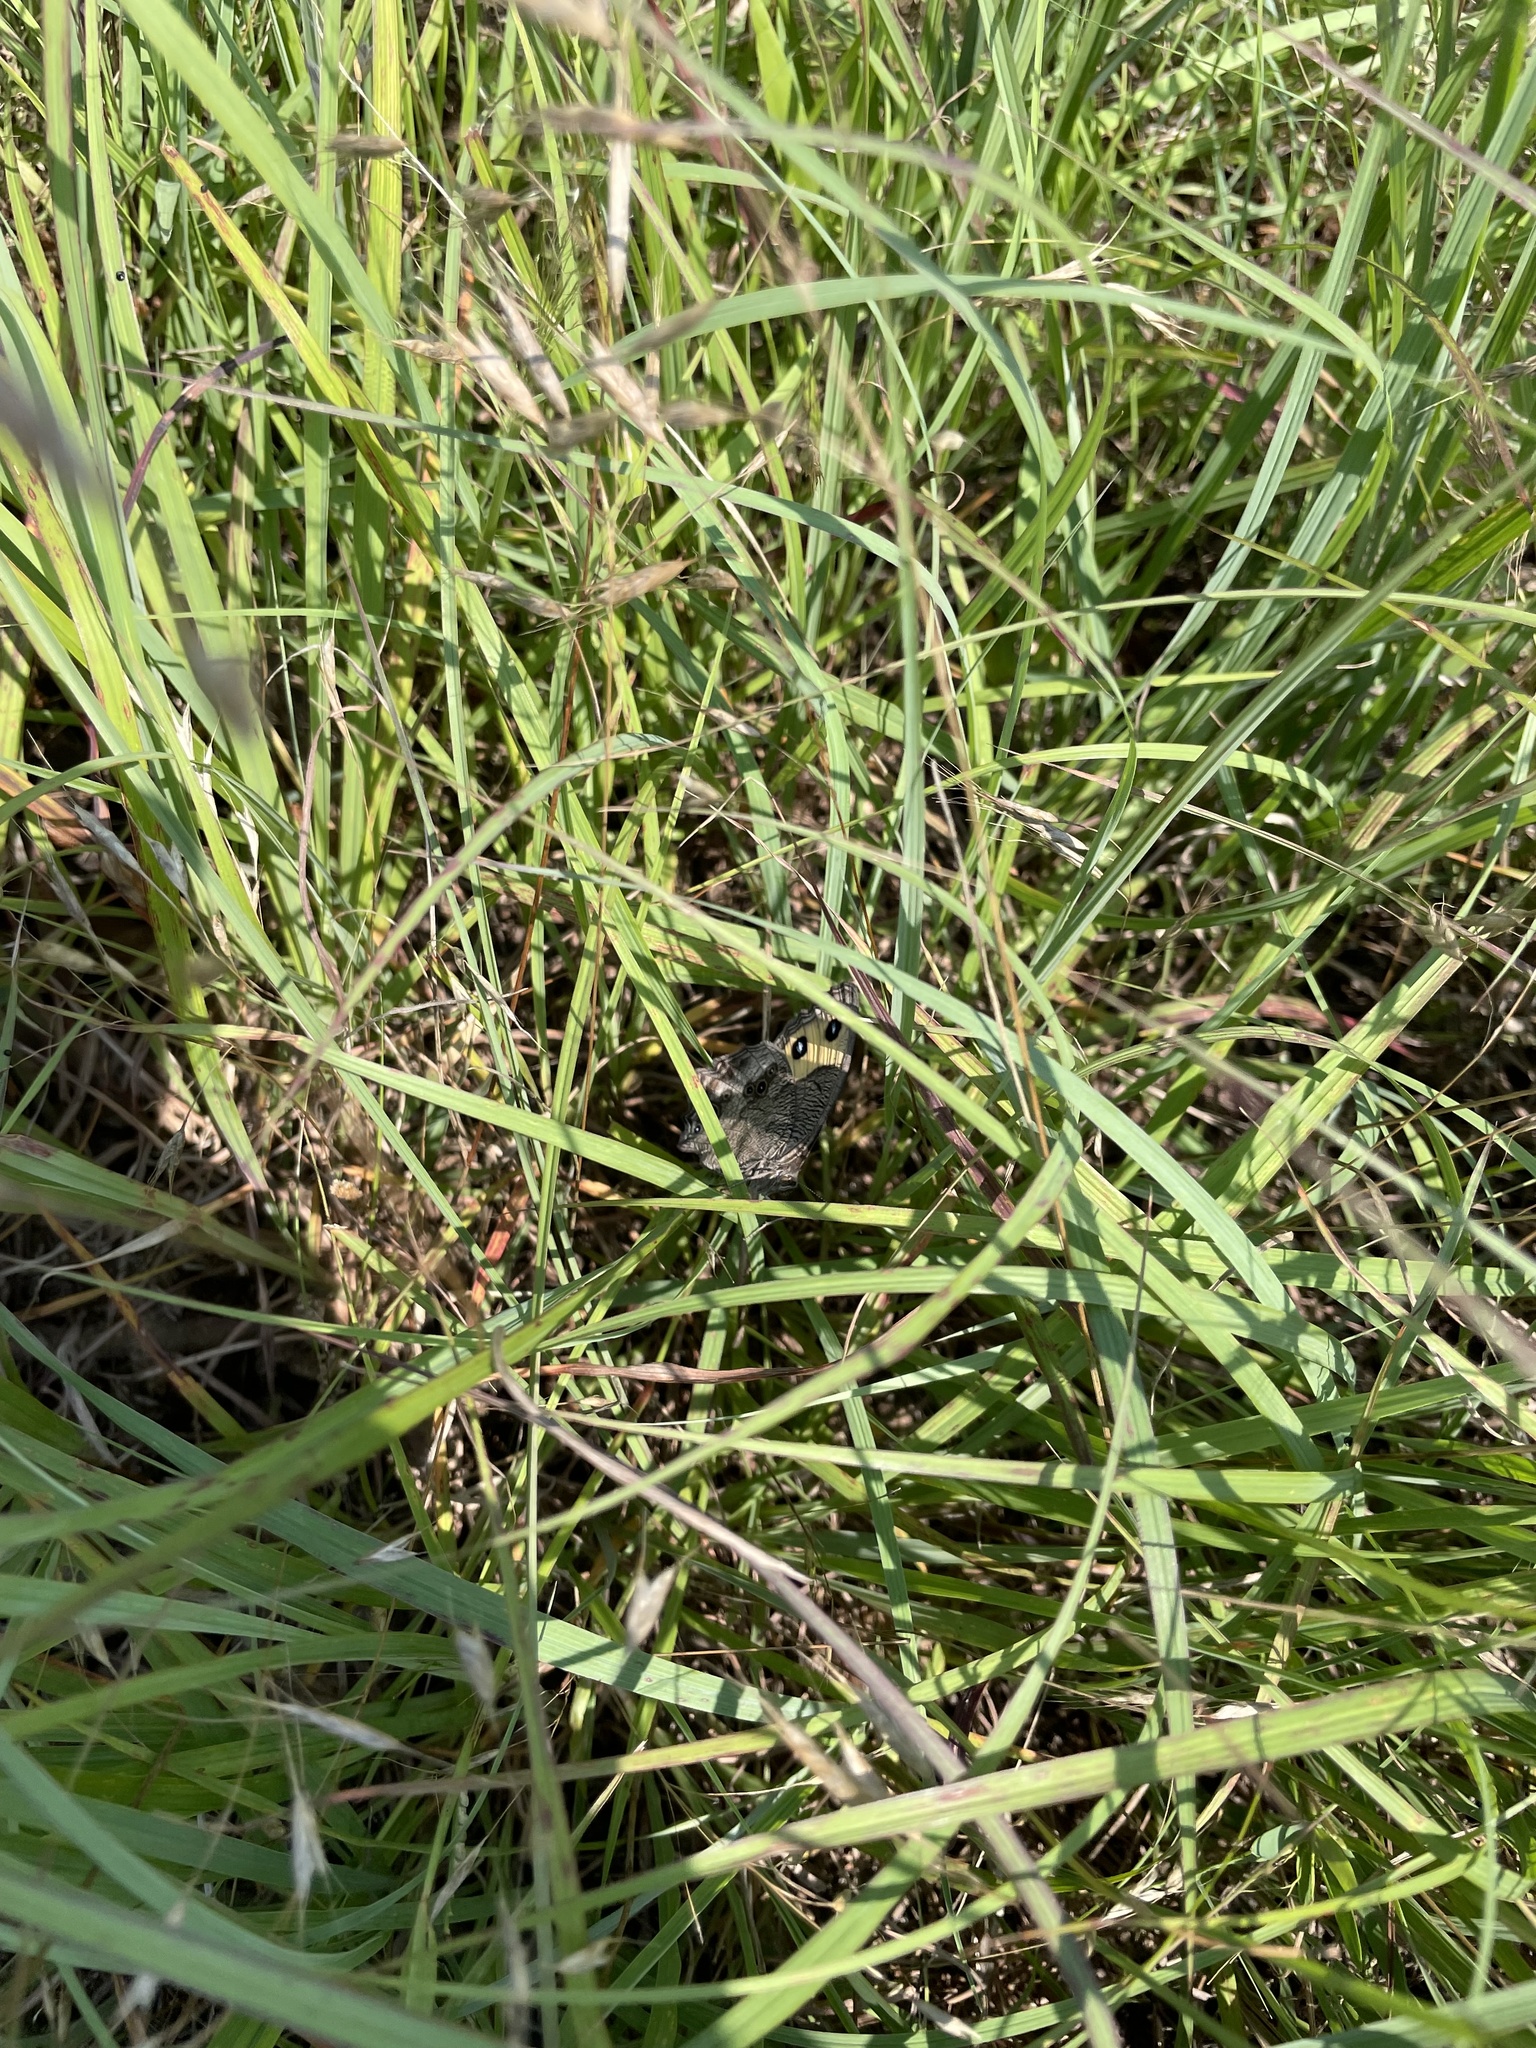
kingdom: Animalia
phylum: Arthropoda
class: Insecta
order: Lepidoptera
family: Nymphalidae
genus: Cercyonis
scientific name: Cercyonis pegala
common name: Common wood-nymph
